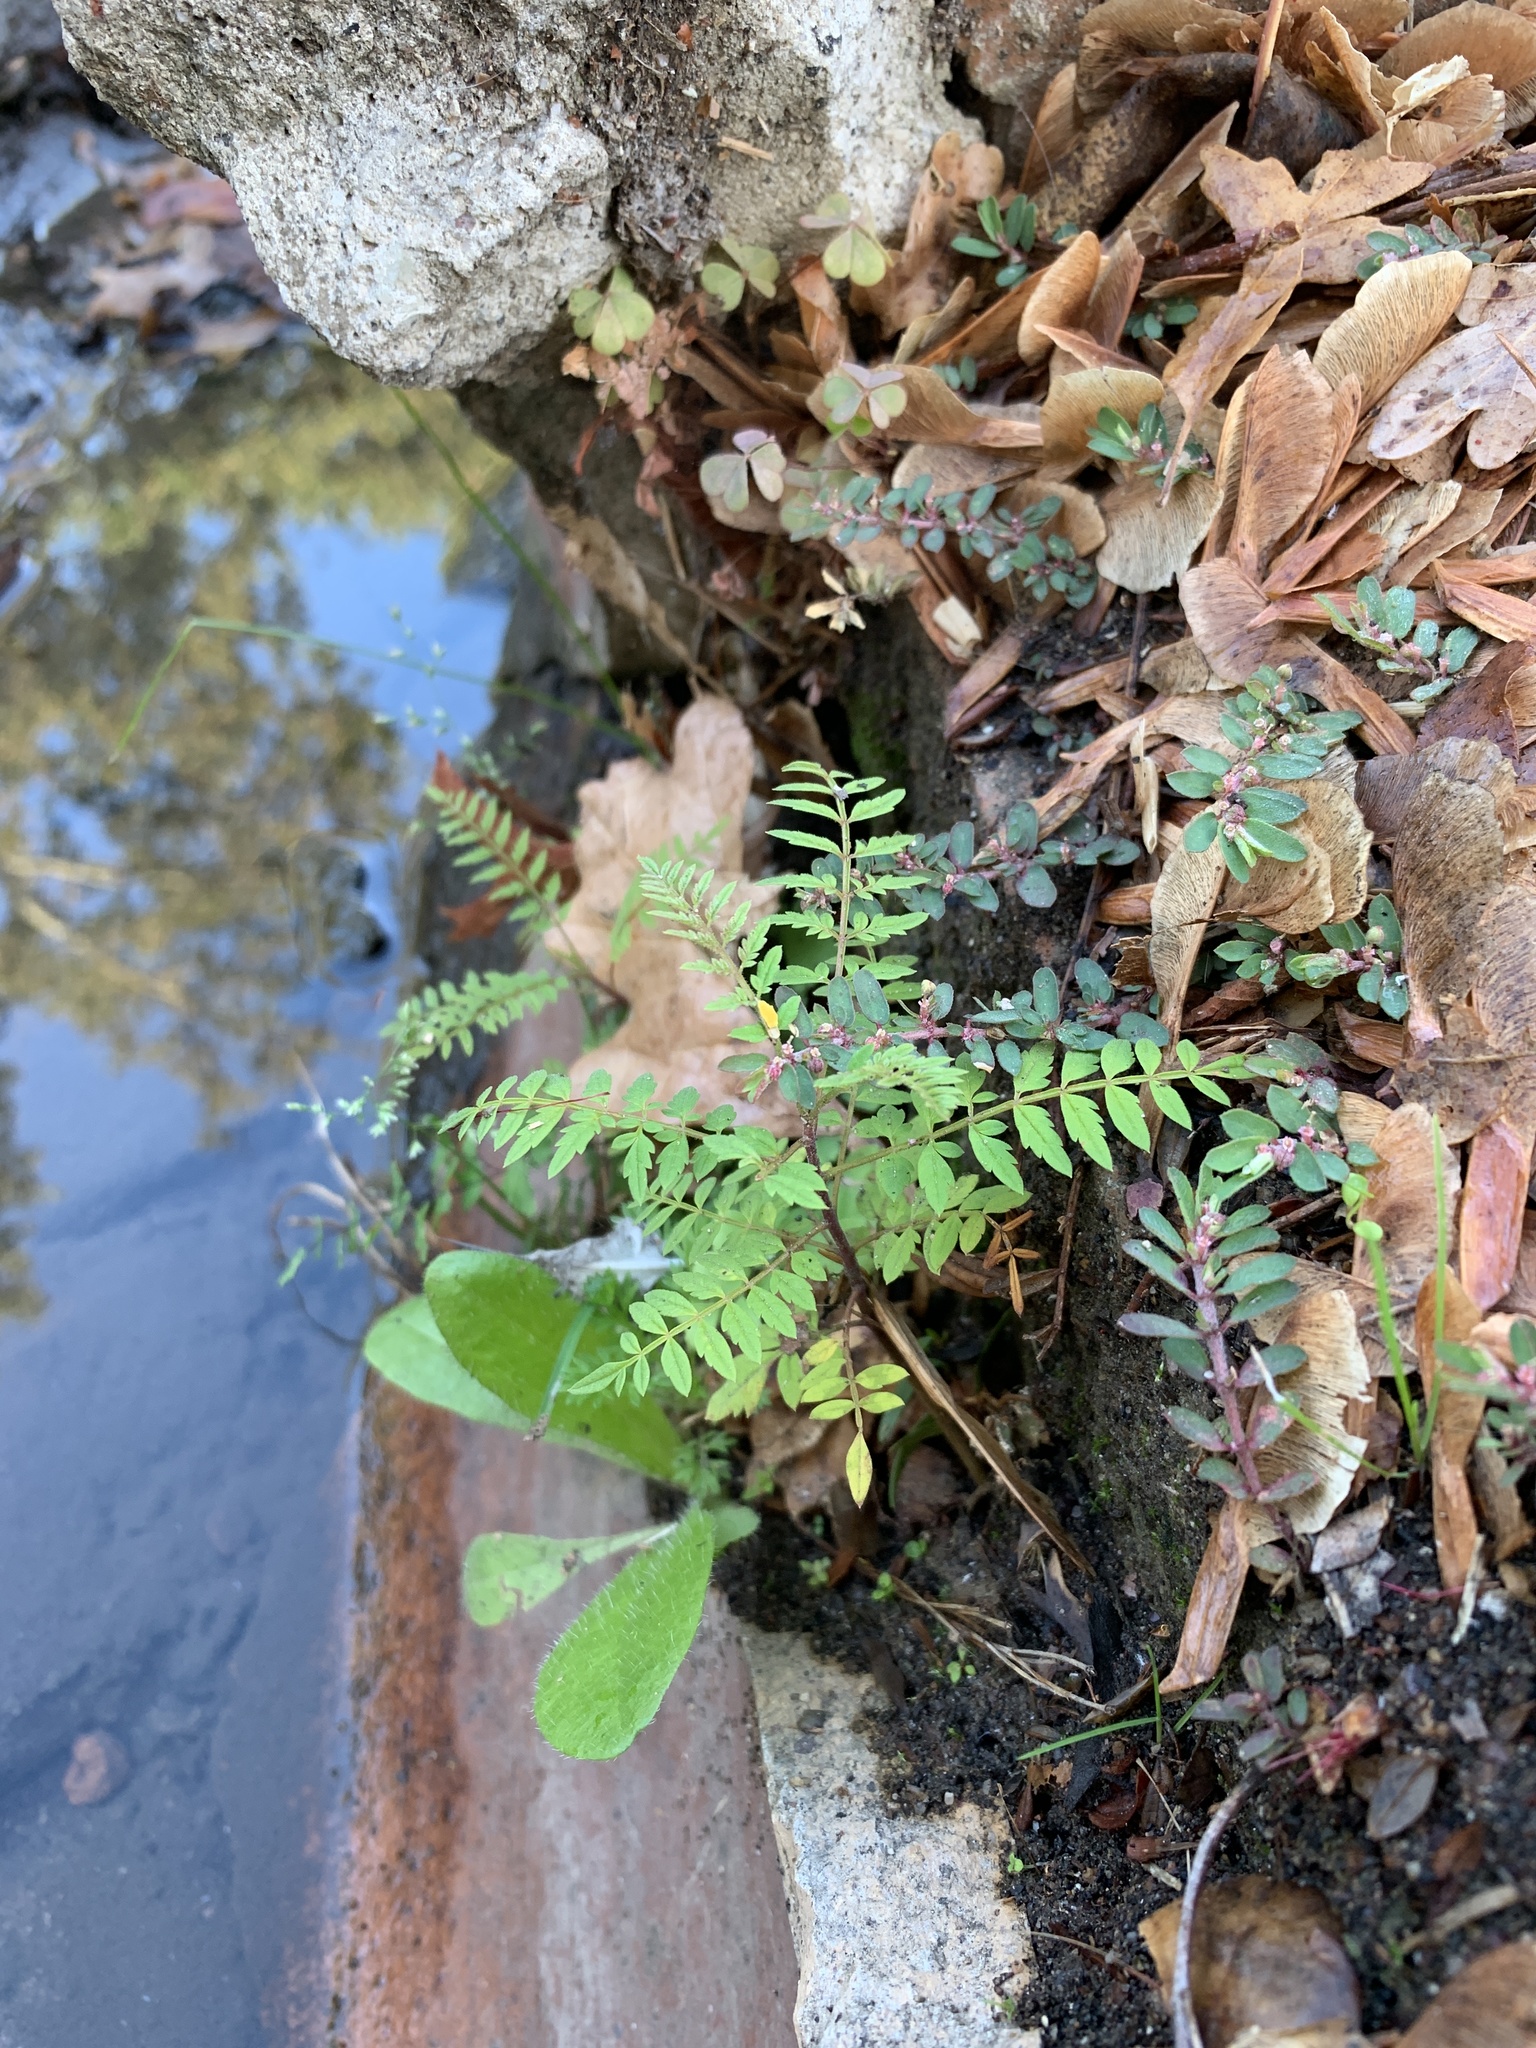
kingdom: Plantae
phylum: Tracheophyta
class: Magnoliopsida
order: Lamiales
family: Bignoniaceae
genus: Jacaranda
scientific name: Jacaranda mimosifolia
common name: Black poui
